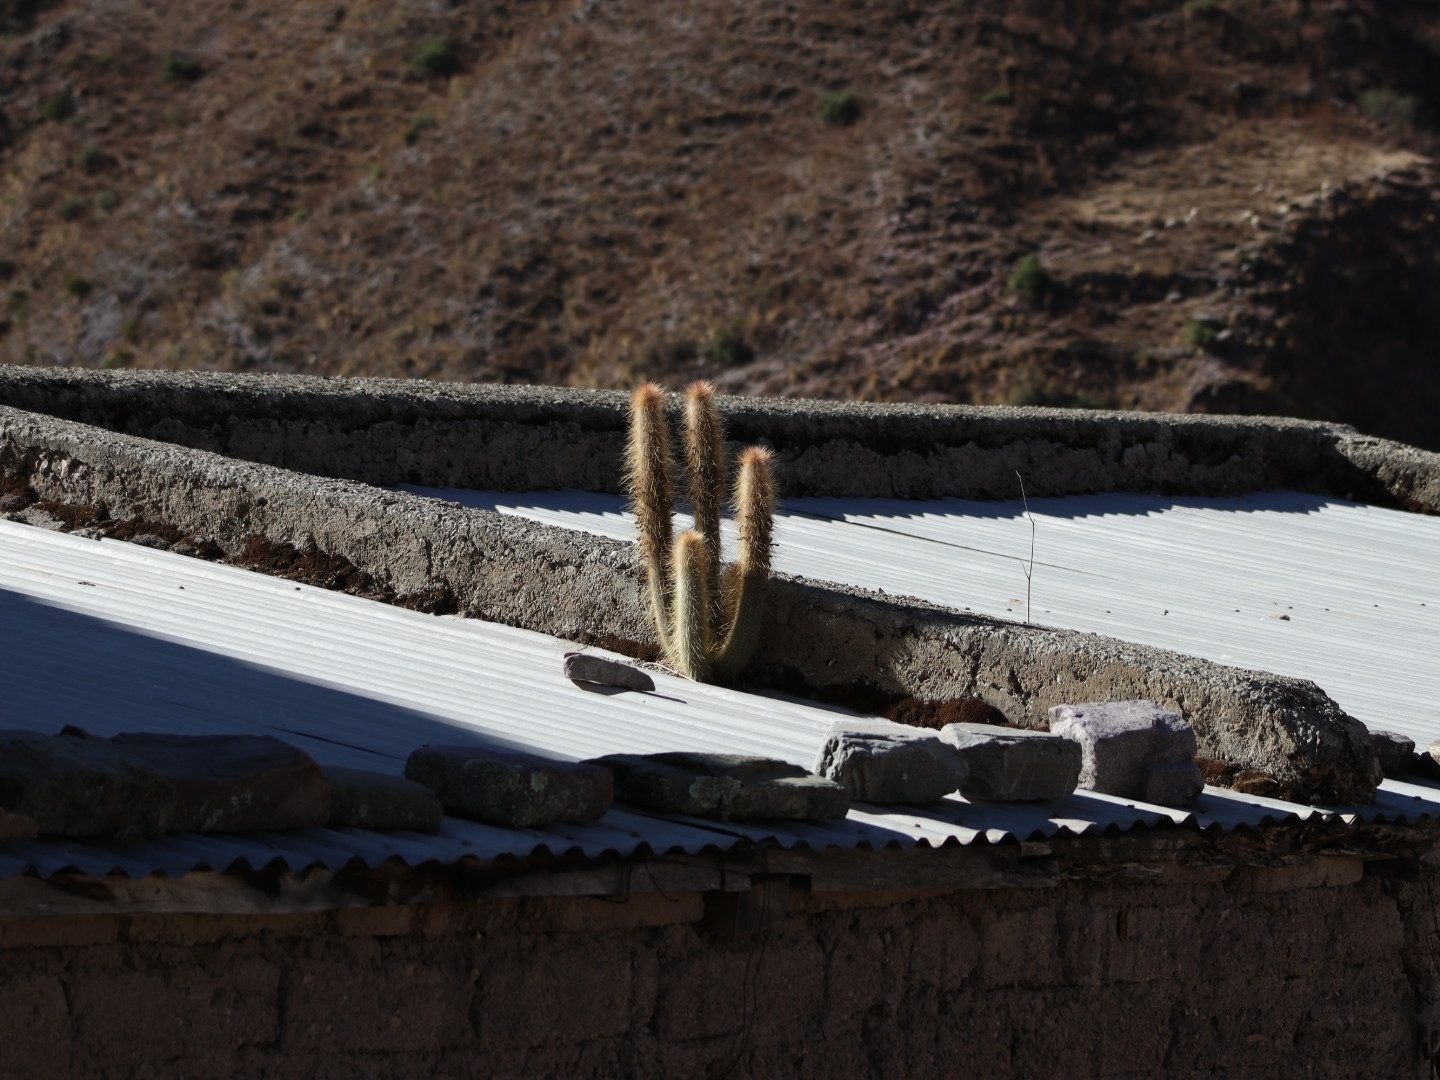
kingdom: Plantae
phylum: Tracheophyta
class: Magnoliopsida
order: Caryophyllales
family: Cactaceae
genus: Cleistocactus
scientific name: Cleistocactus hyalacanthus
